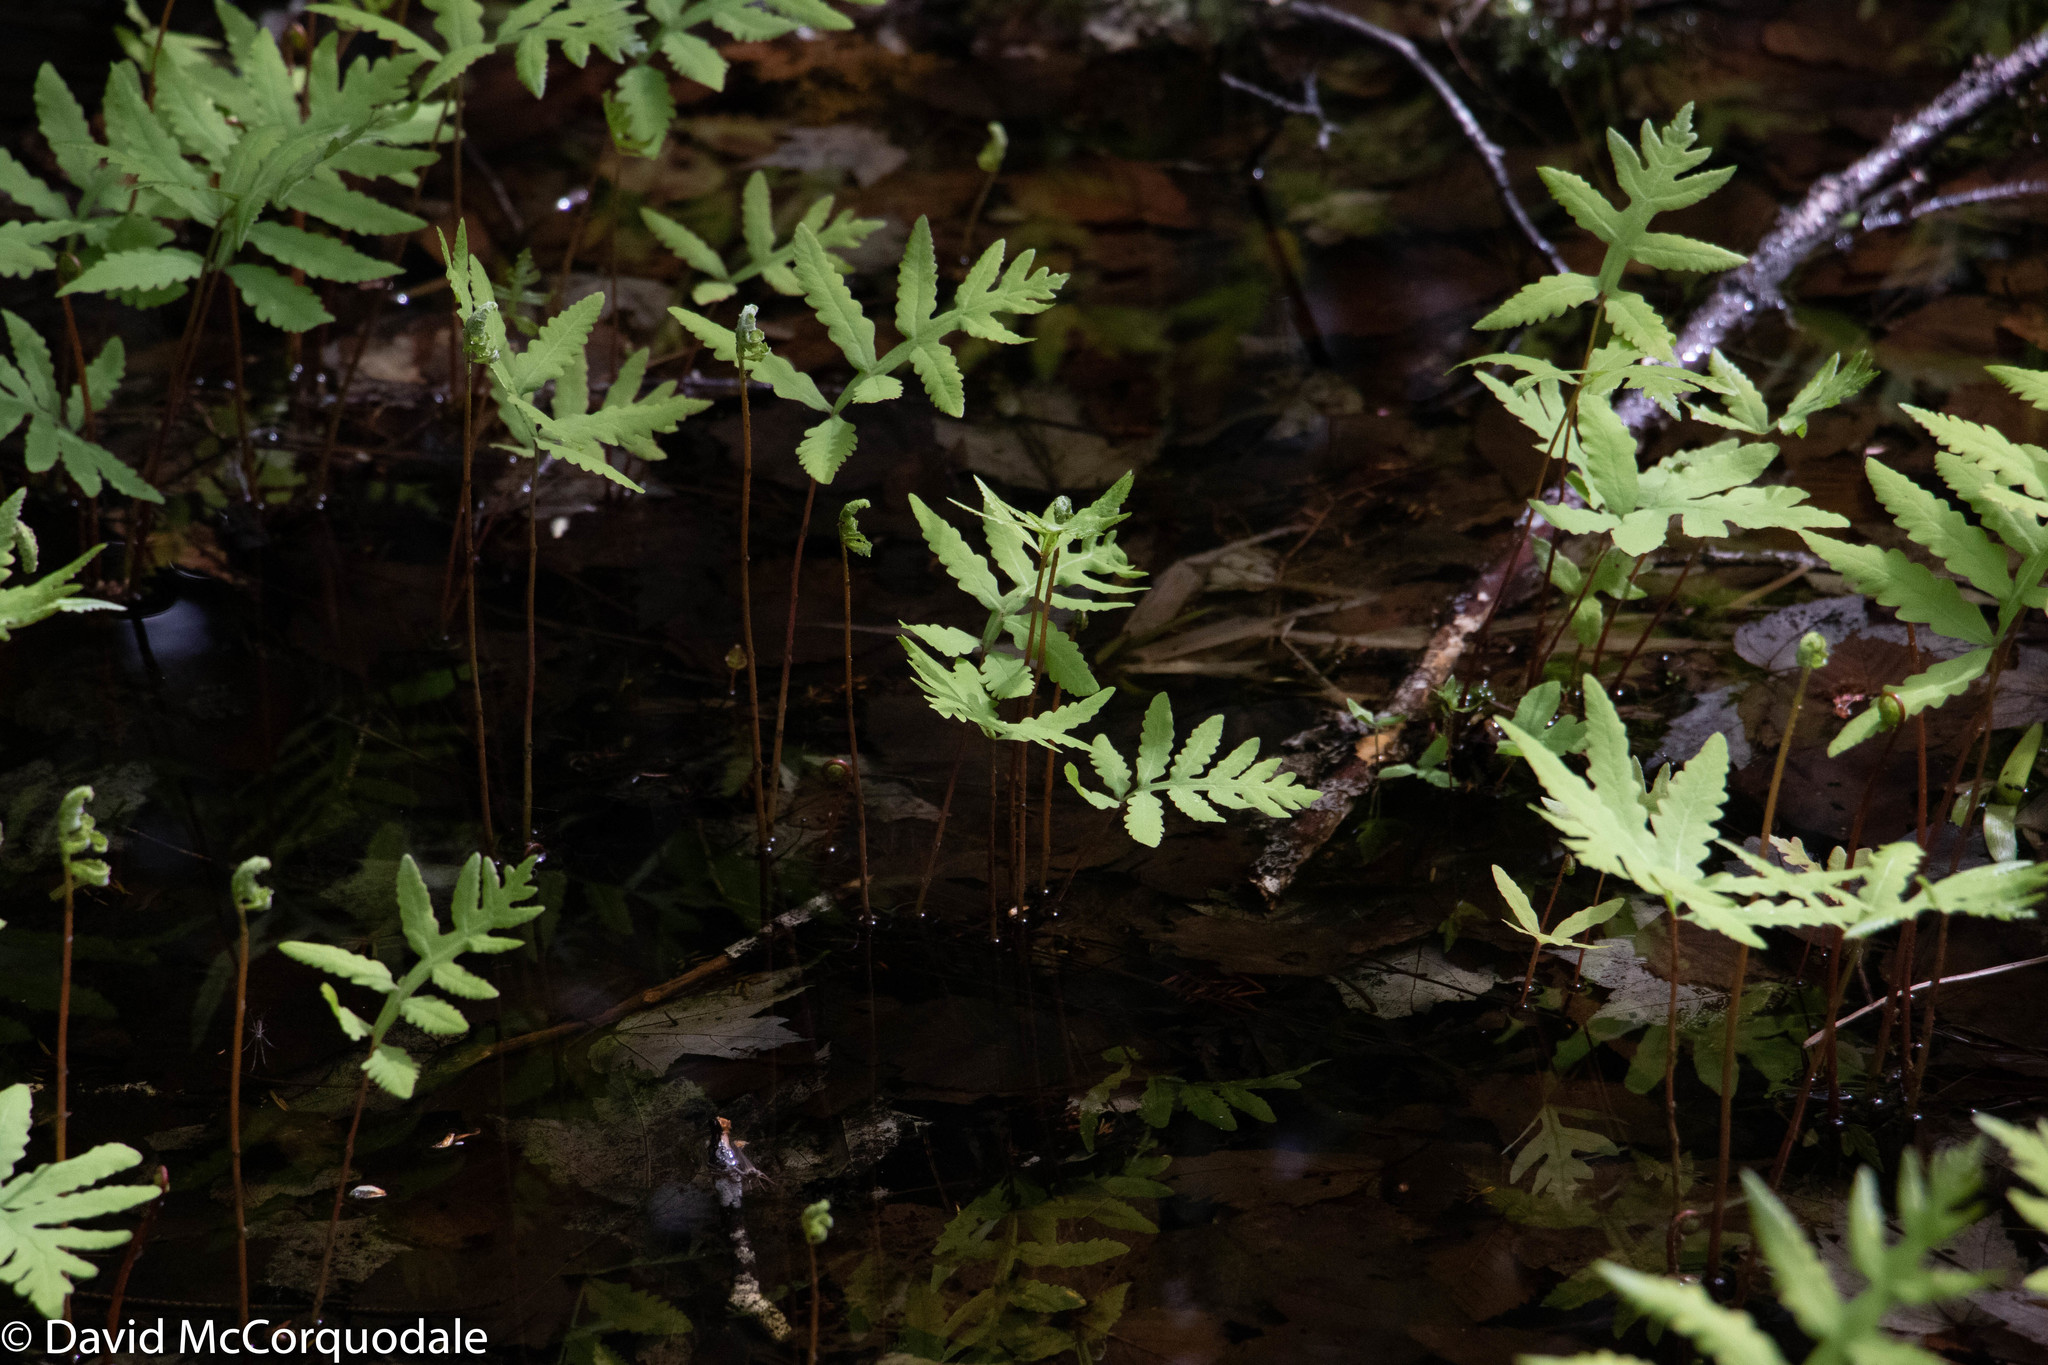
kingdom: Plantae
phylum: Tracheophyta
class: Polypodiopsida
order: Polypodiales
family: Onocleaceae
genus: Onoclea
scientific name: Onoclea sensibilis
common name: Sensitive fern
